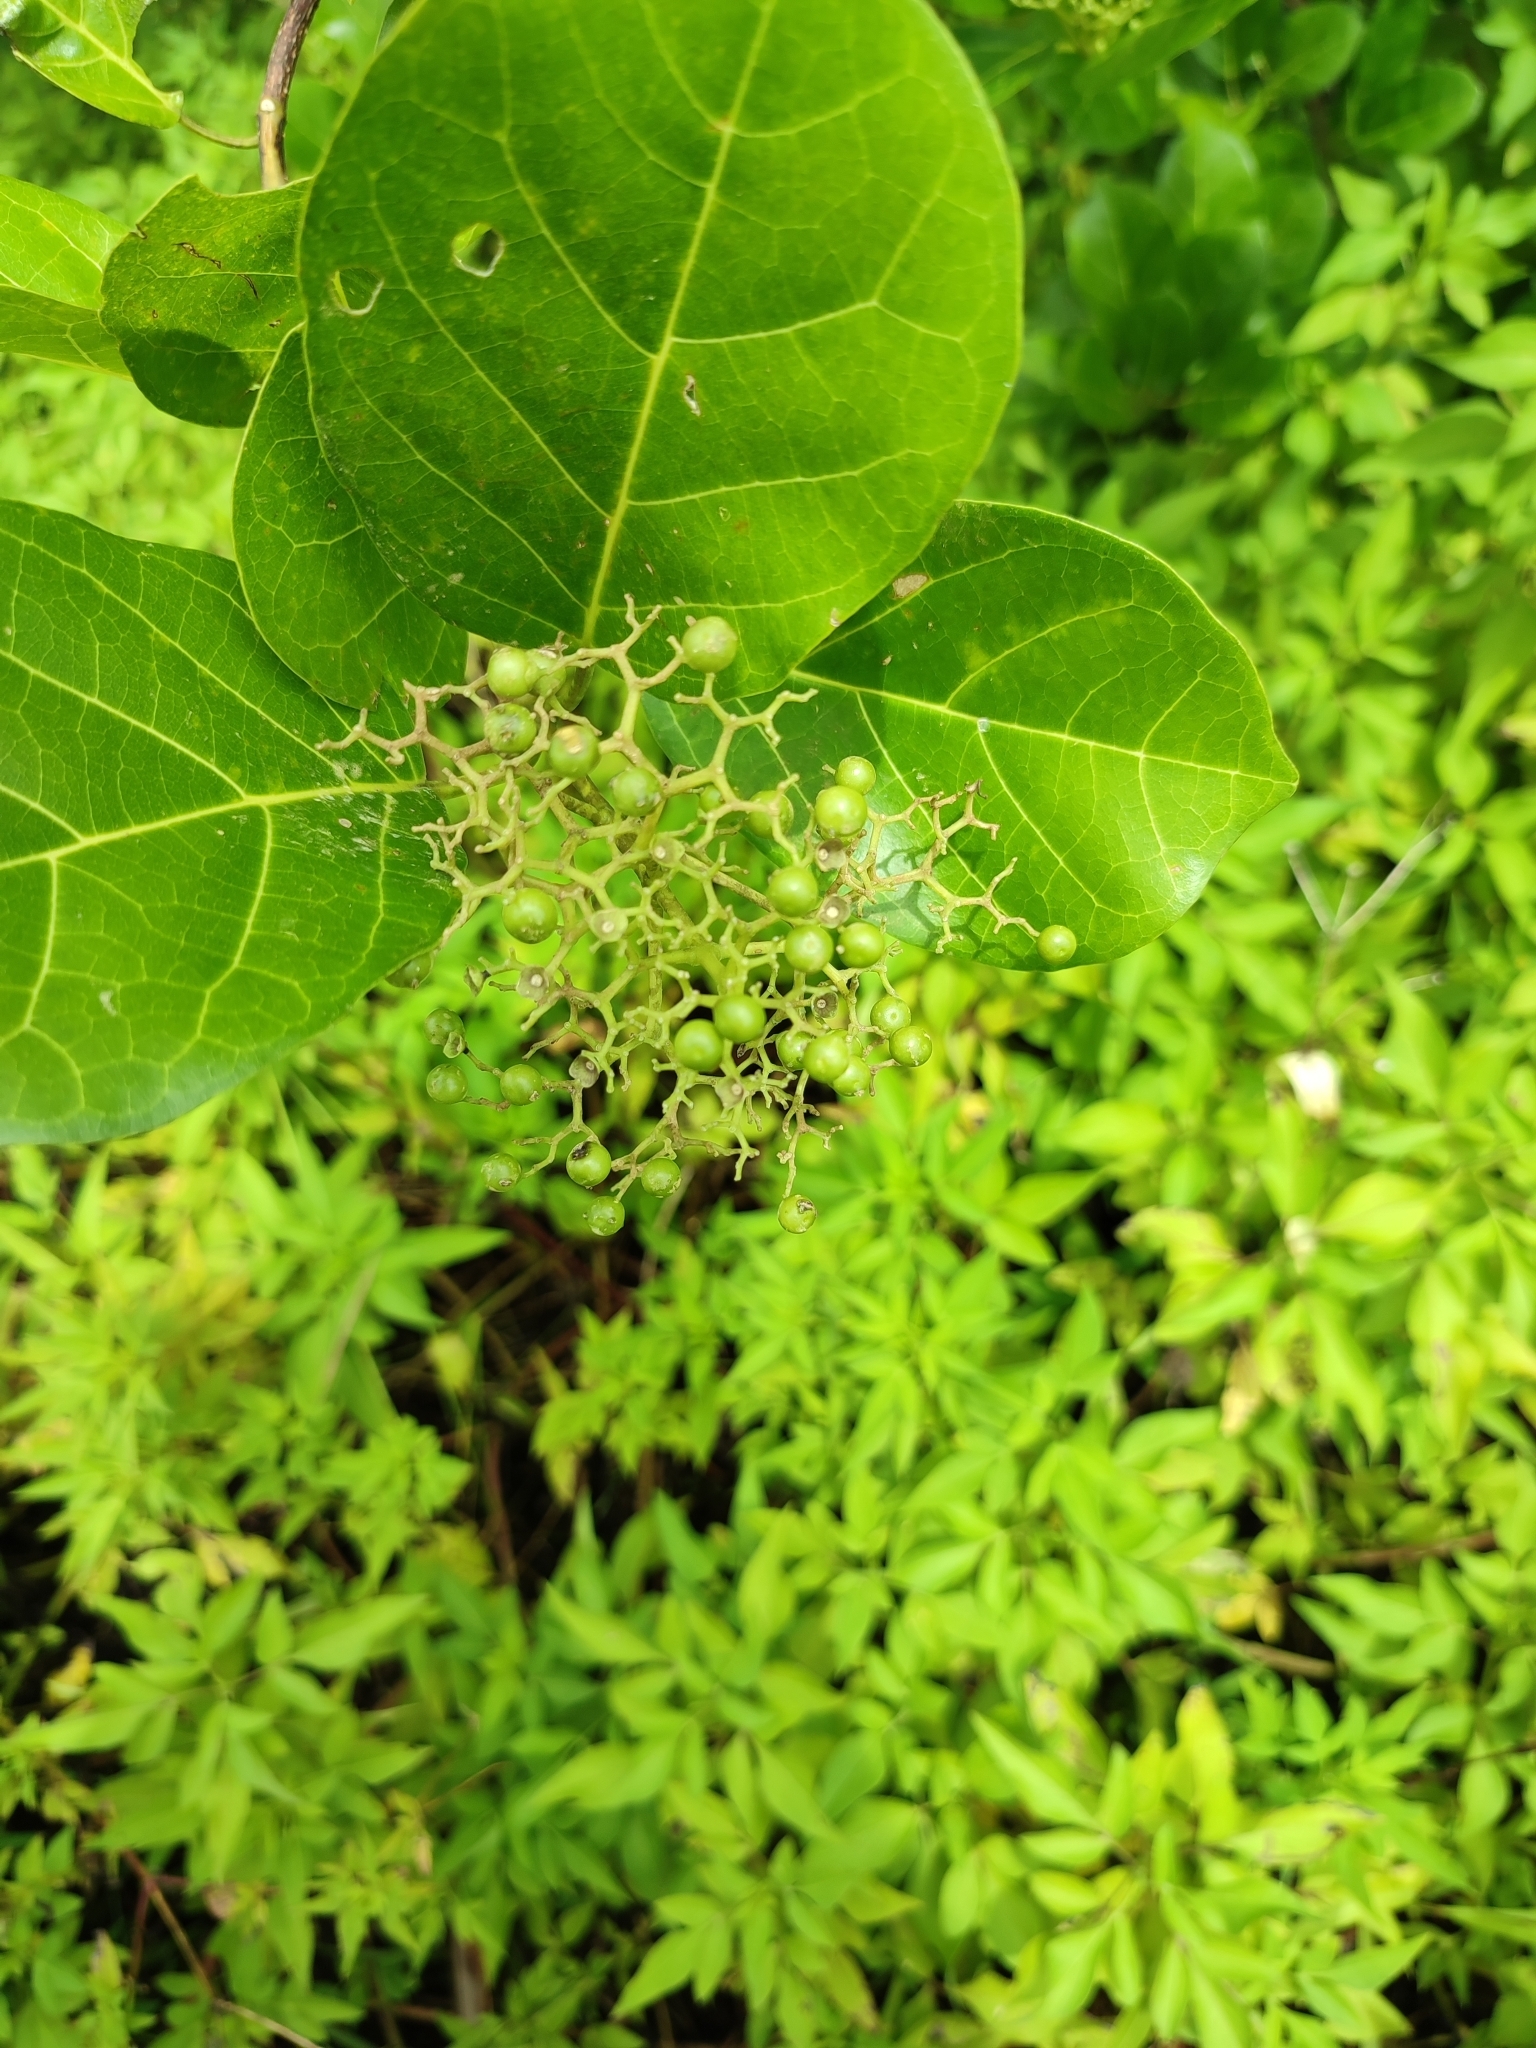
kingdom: Plantae
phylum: Tracheophyta
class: Magnoliopsida
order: Lamiales
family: Lamiaceae
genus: Premna
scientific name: Premna serratifolia
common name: Bastard guelder
